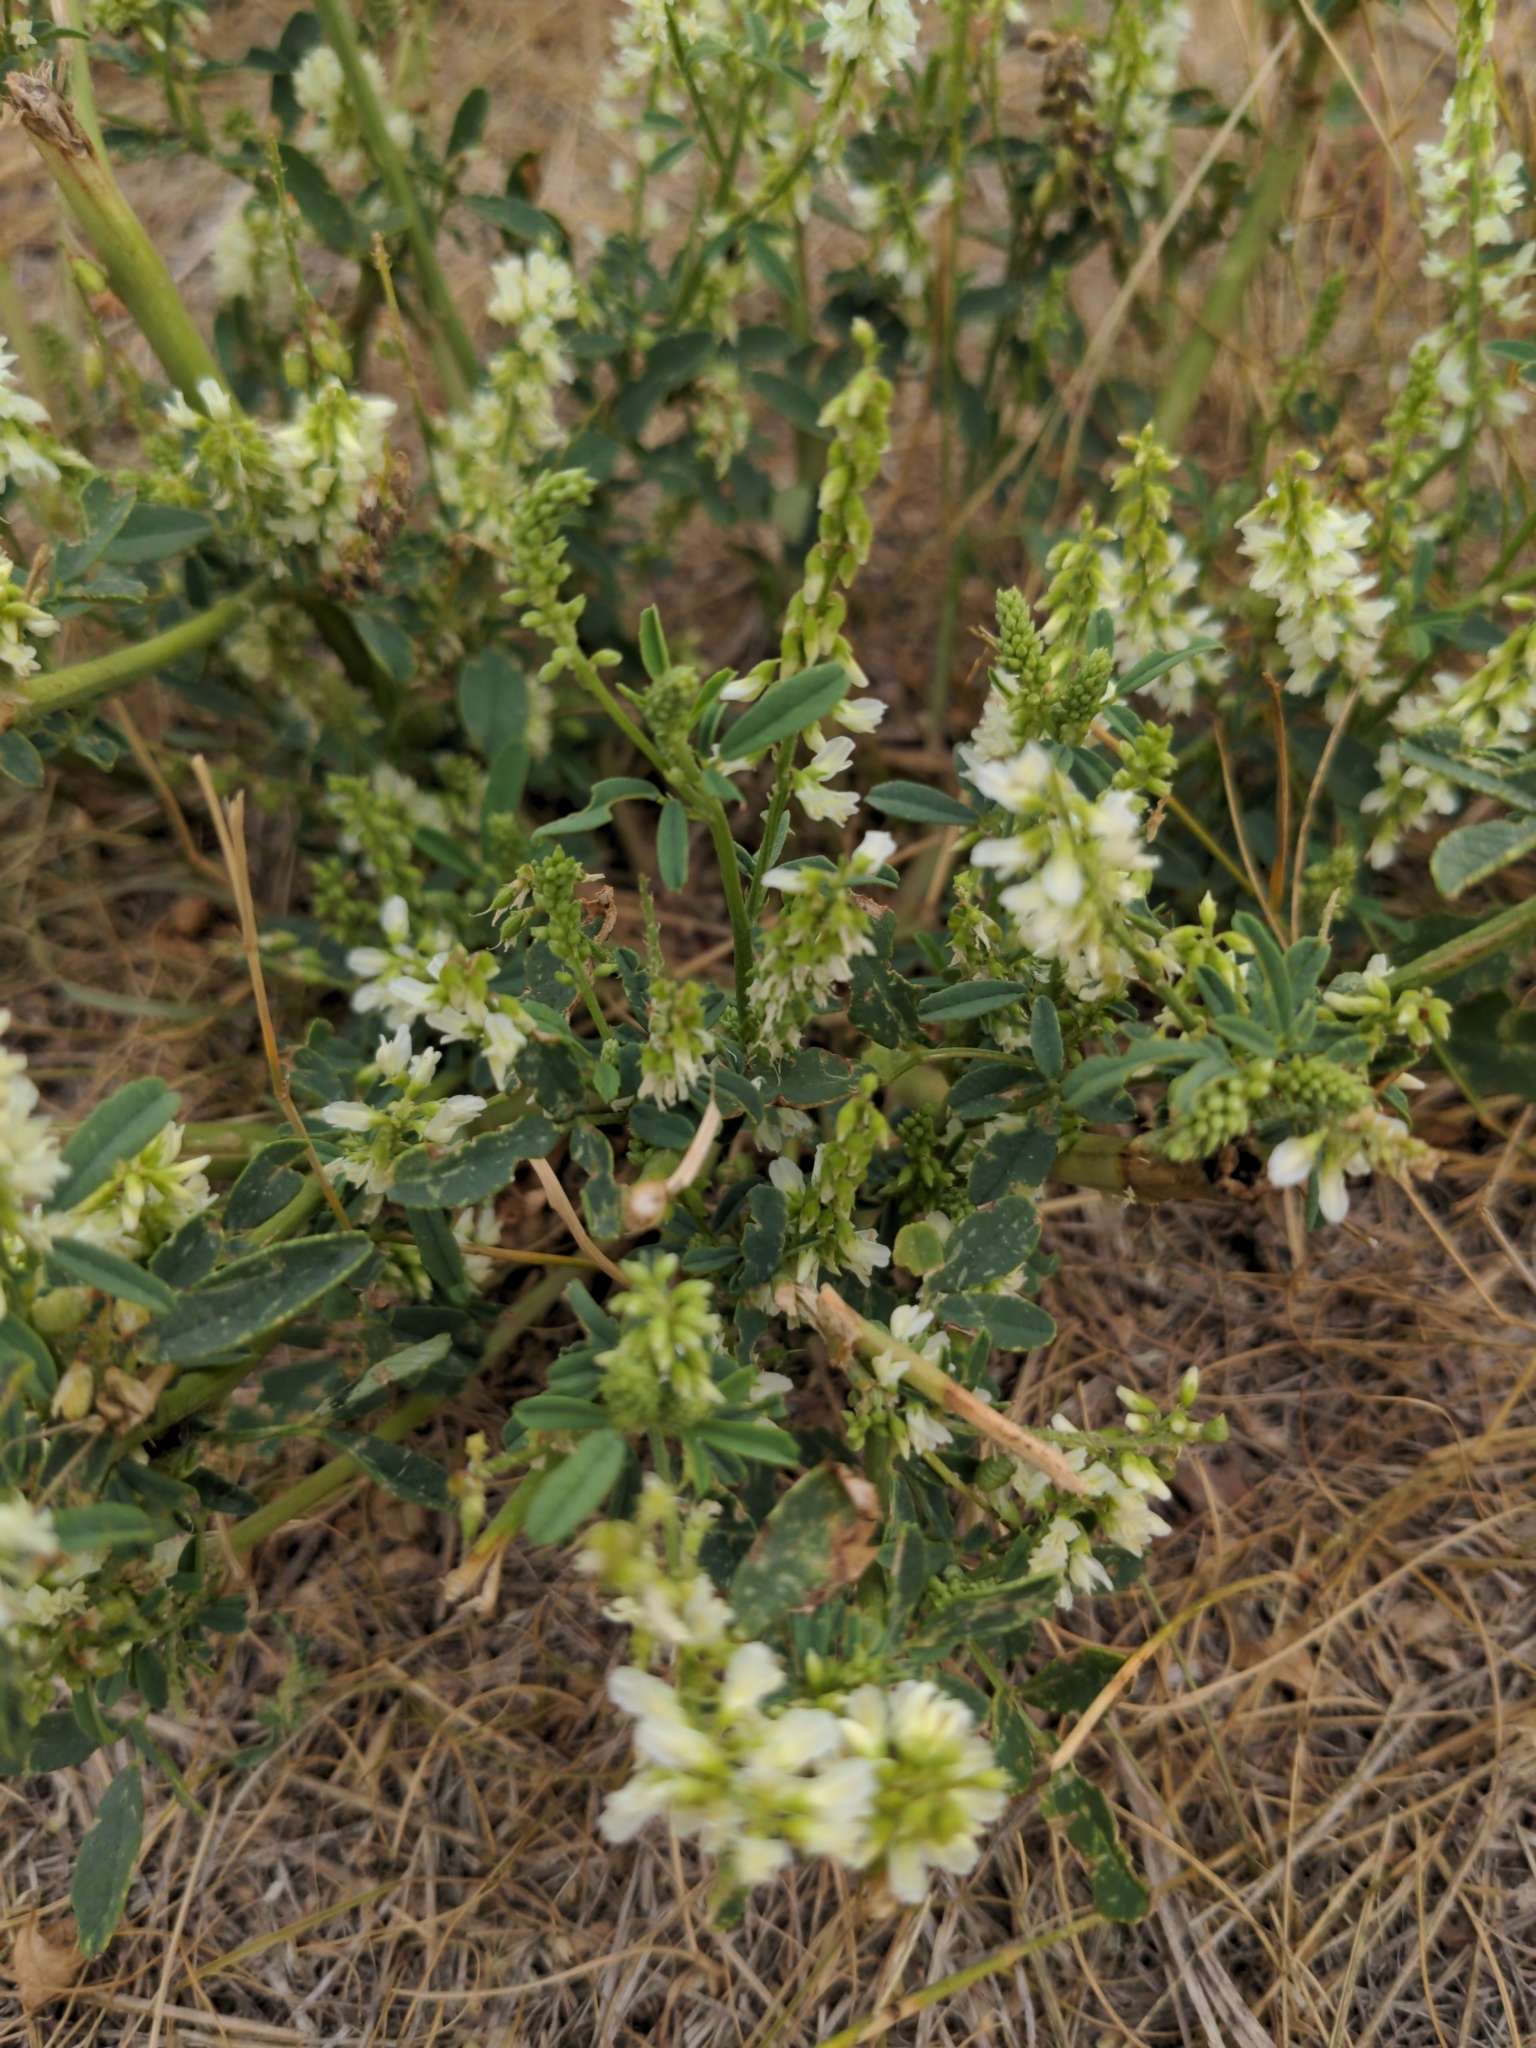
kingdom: Plantae
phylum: Tracheophyta
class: Magnoliopsida
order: Fabales
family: Fabaceae
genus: Melilotus
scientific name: Melilotus albus
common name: White melilot
